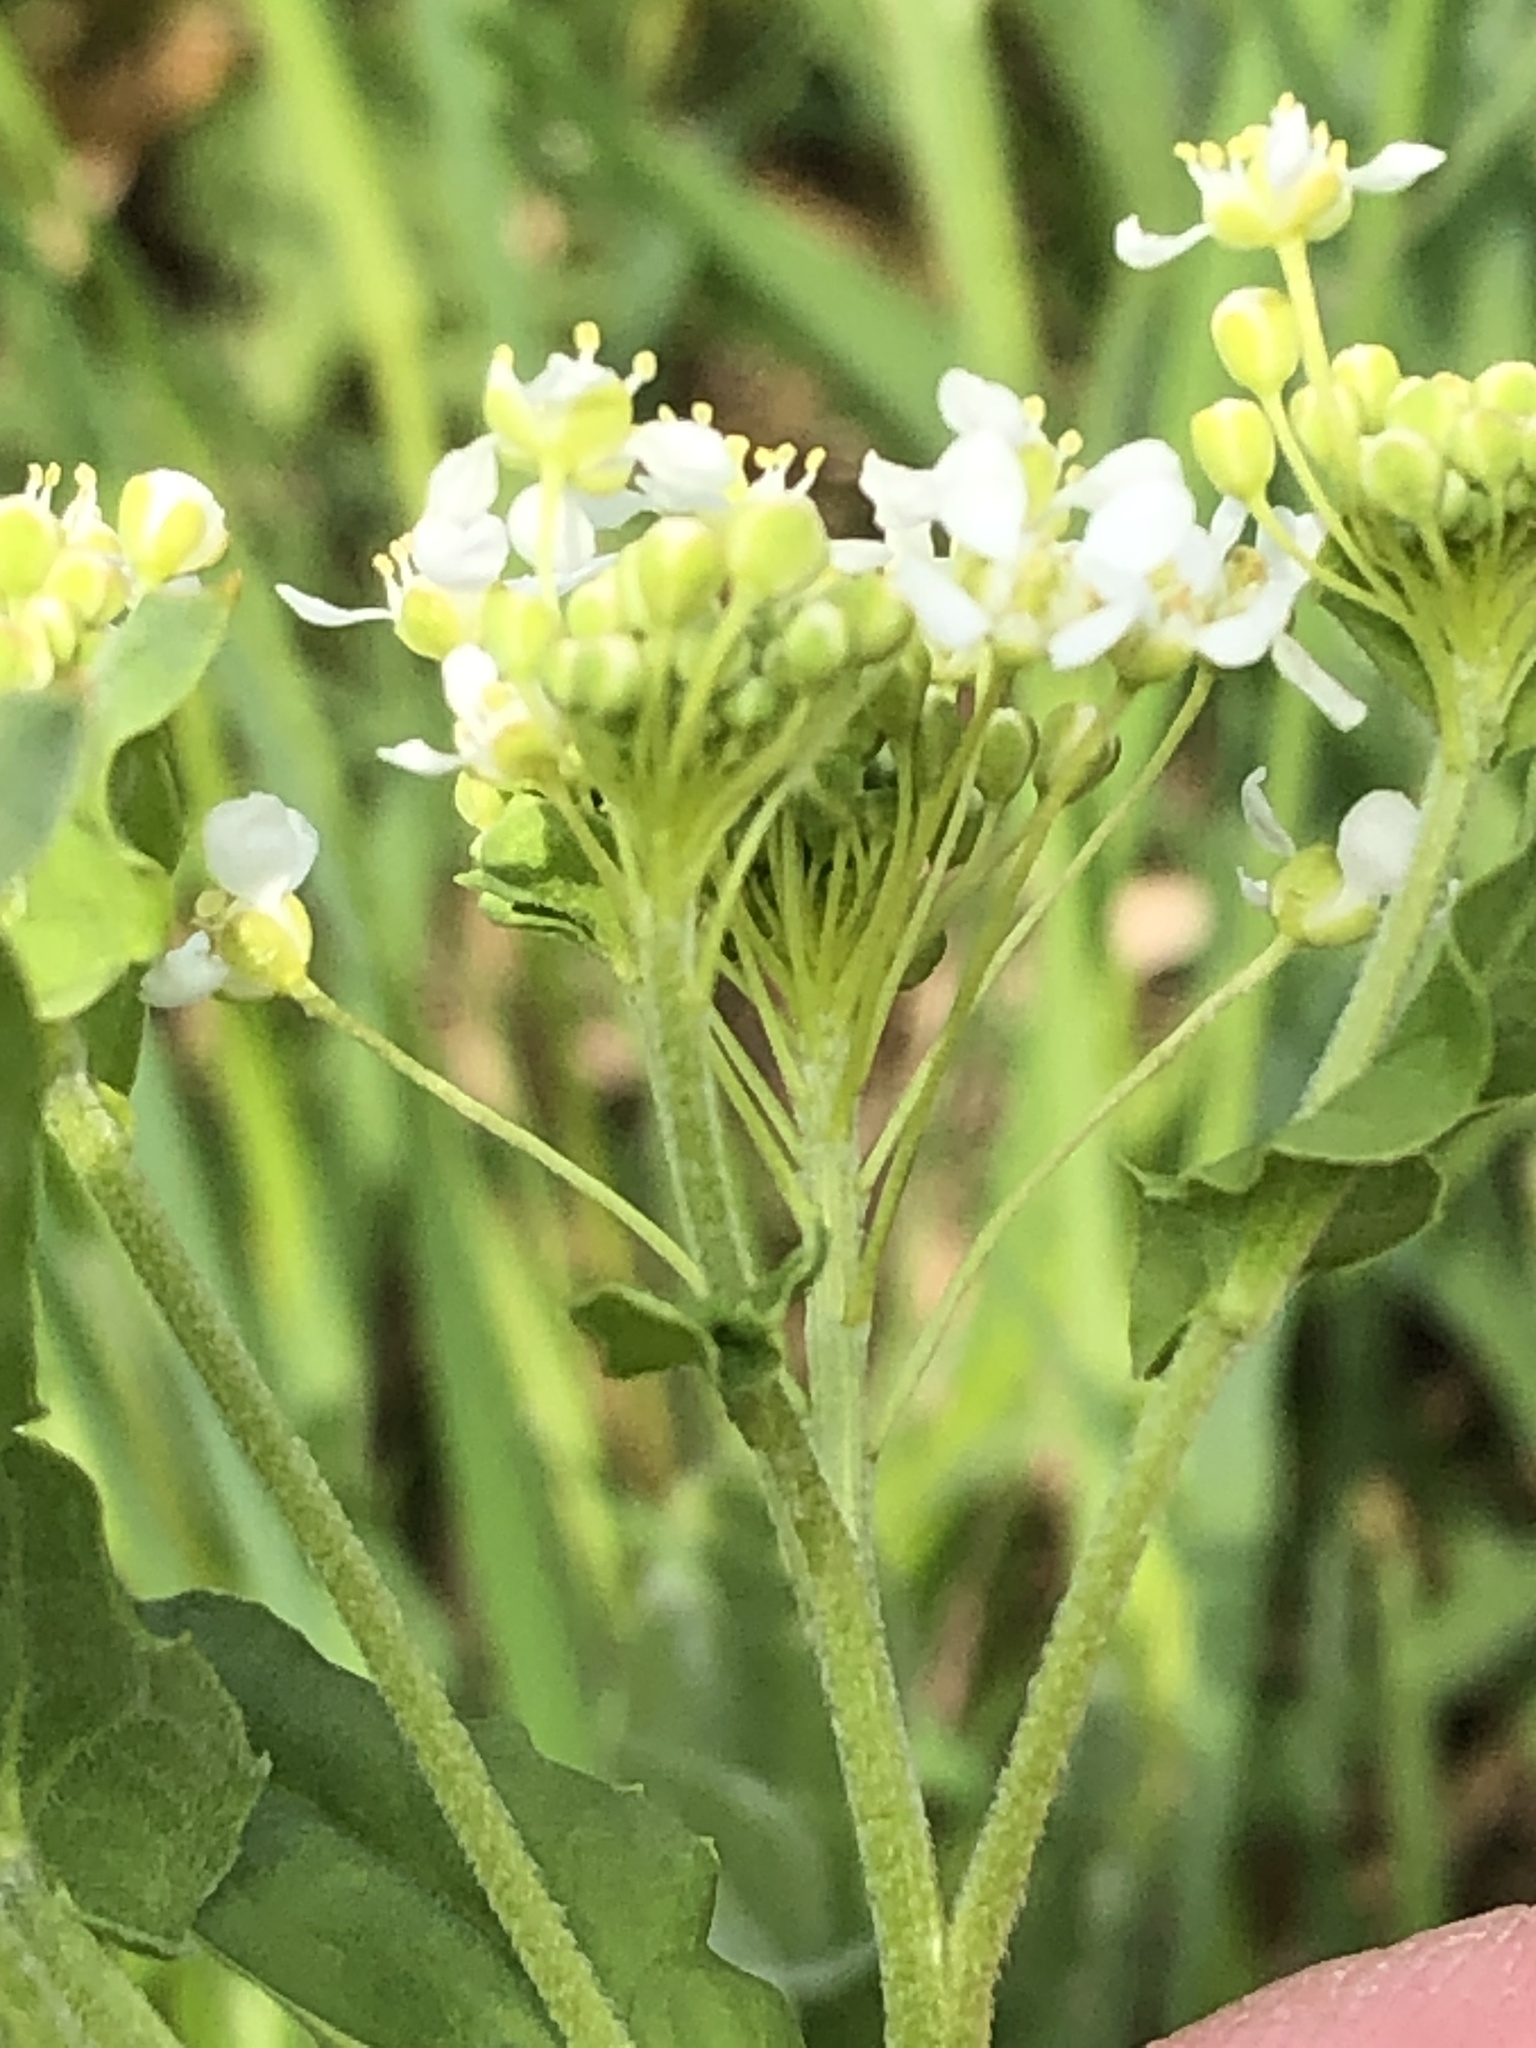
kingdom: Plantae
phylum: Tracheophyta
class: Magnoliopsida
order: Brassicales
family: Brassicaceae
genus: Lepidium
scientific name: Lepidium draba
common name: Hoary cress
